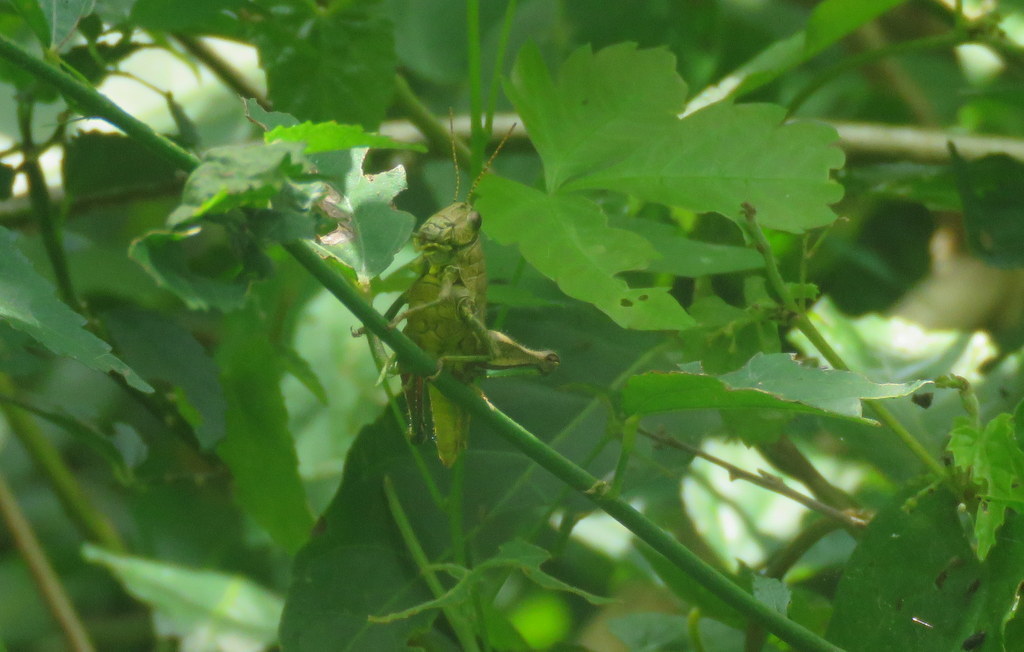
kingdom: Animalia
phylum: Arthropoda
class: Insecta
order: Orthoptera
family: Acrididae
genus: Dichromatos
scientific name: Dichromatos lilloanus
